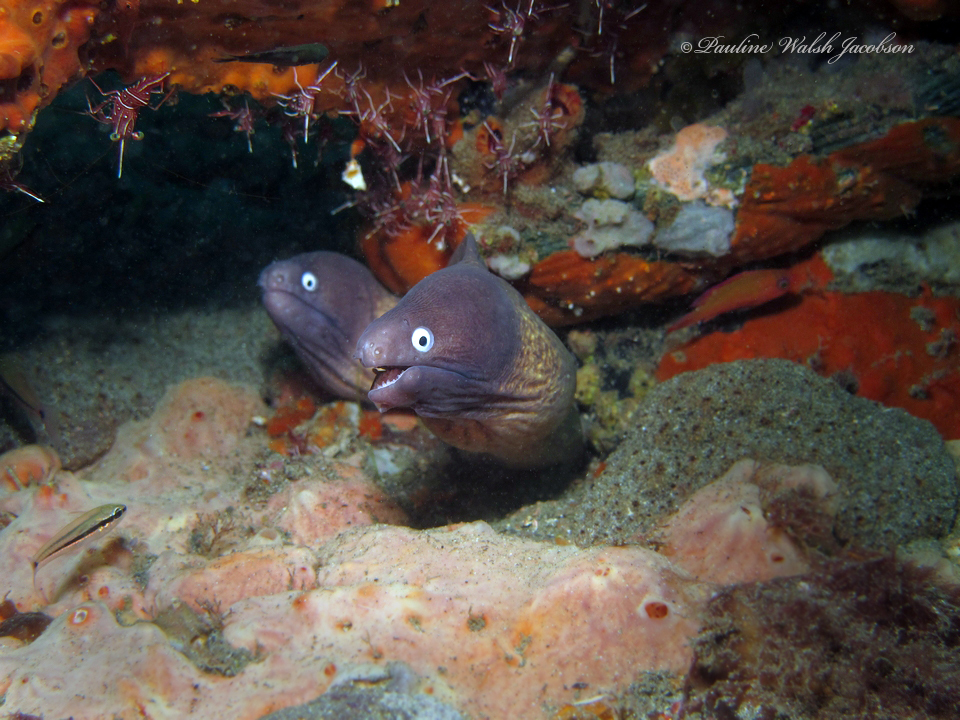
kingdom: Animalia
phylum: Chordata
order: Anguilliformes
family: Muraenidae
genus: Gymnothorax
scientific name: Gymnothorax thyrsoideus
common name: Greyface moray
